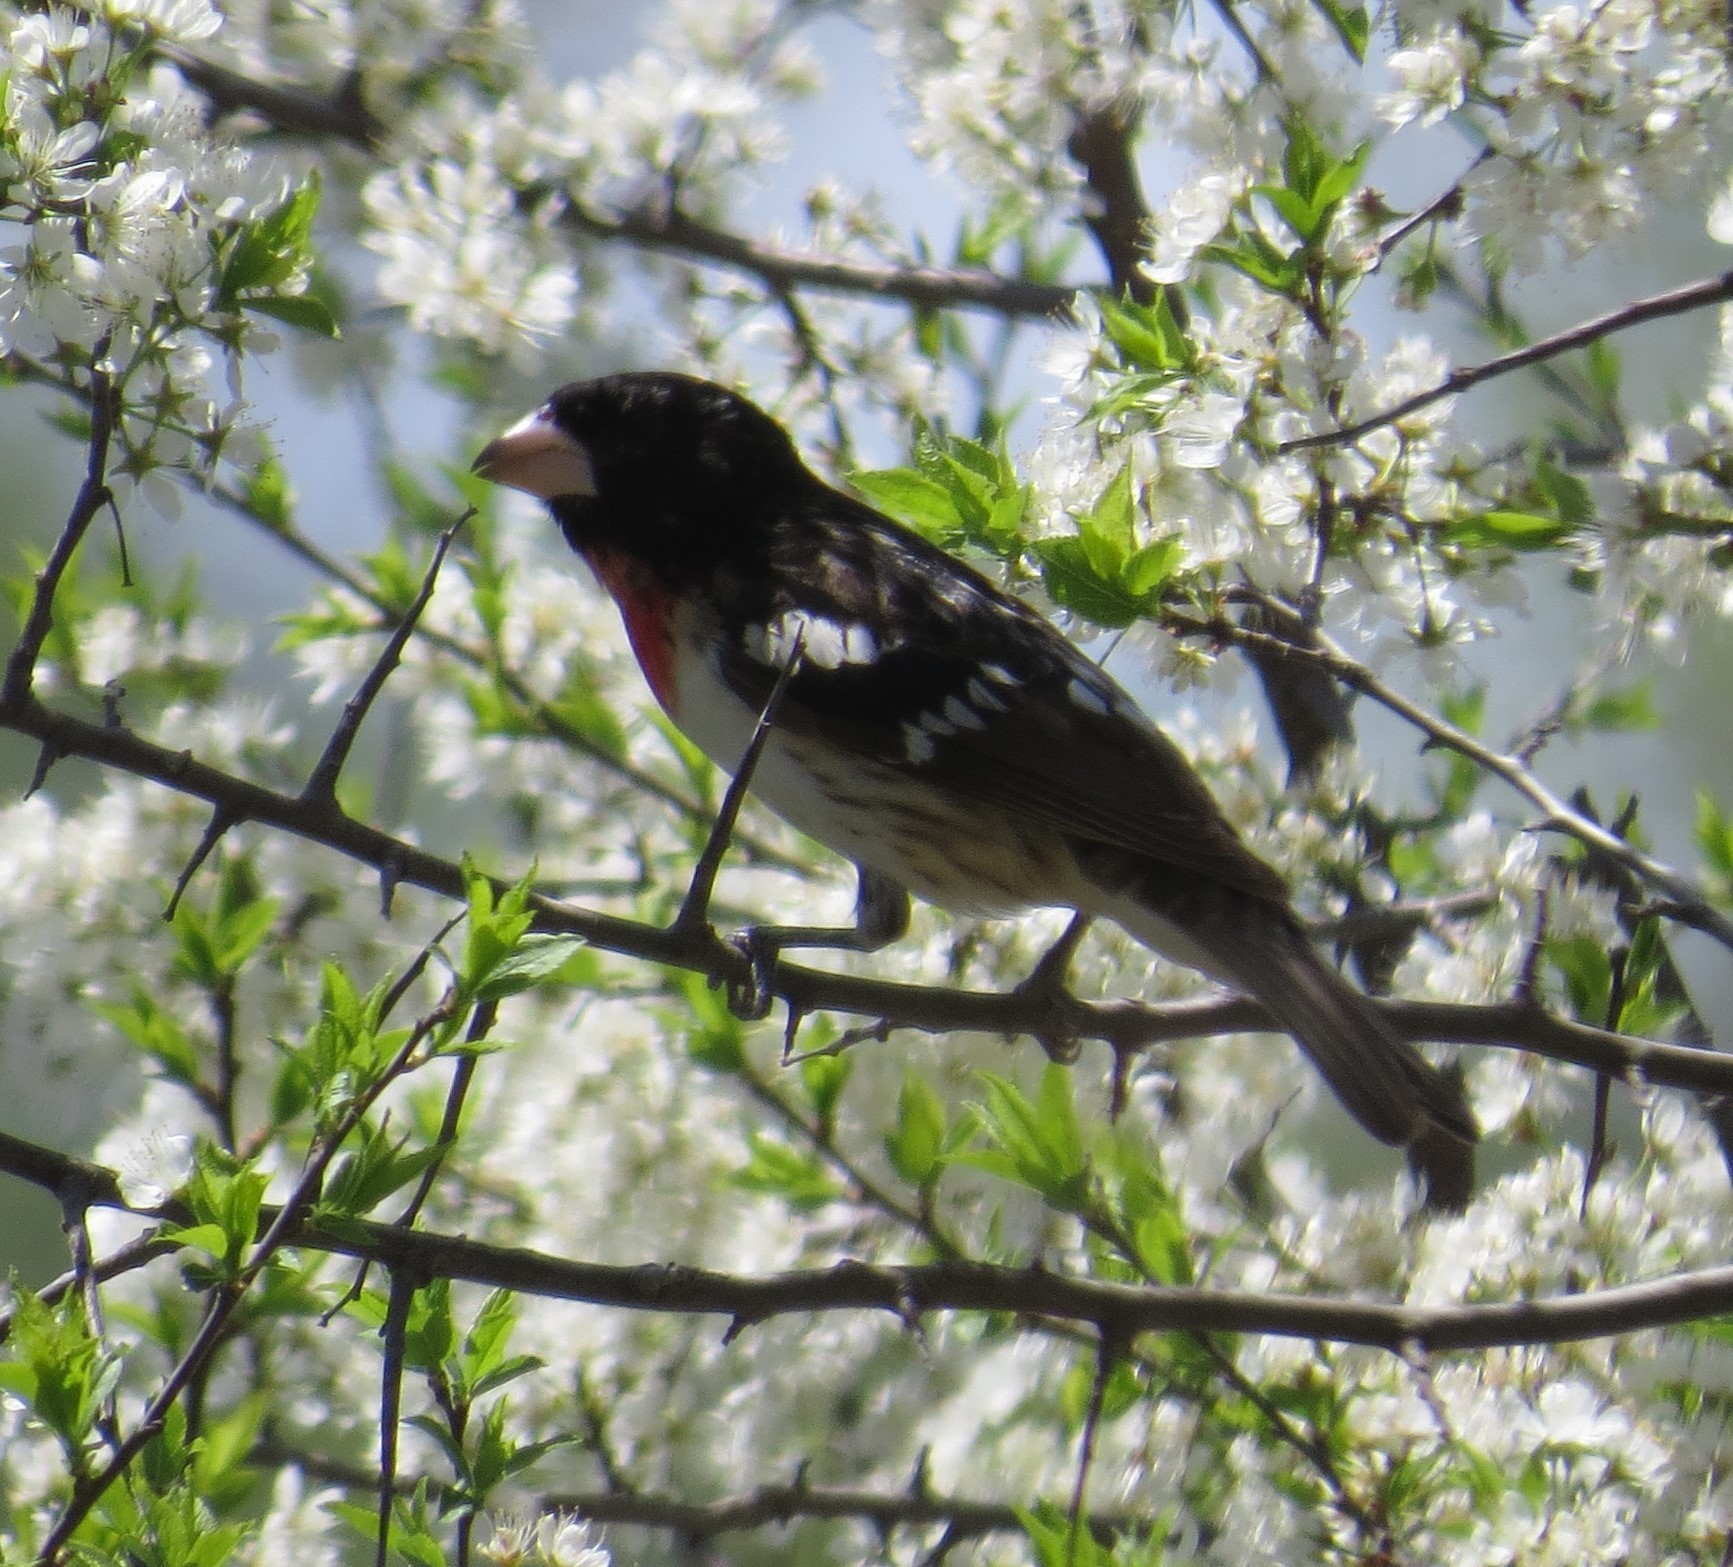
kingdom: Animalia
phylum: Chordata
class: Aves
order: Passeriformes
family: Cardinalidae
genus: Pheucticus
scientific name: Pheucticus ludovicianus
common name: Rose-breasted grosbeak
